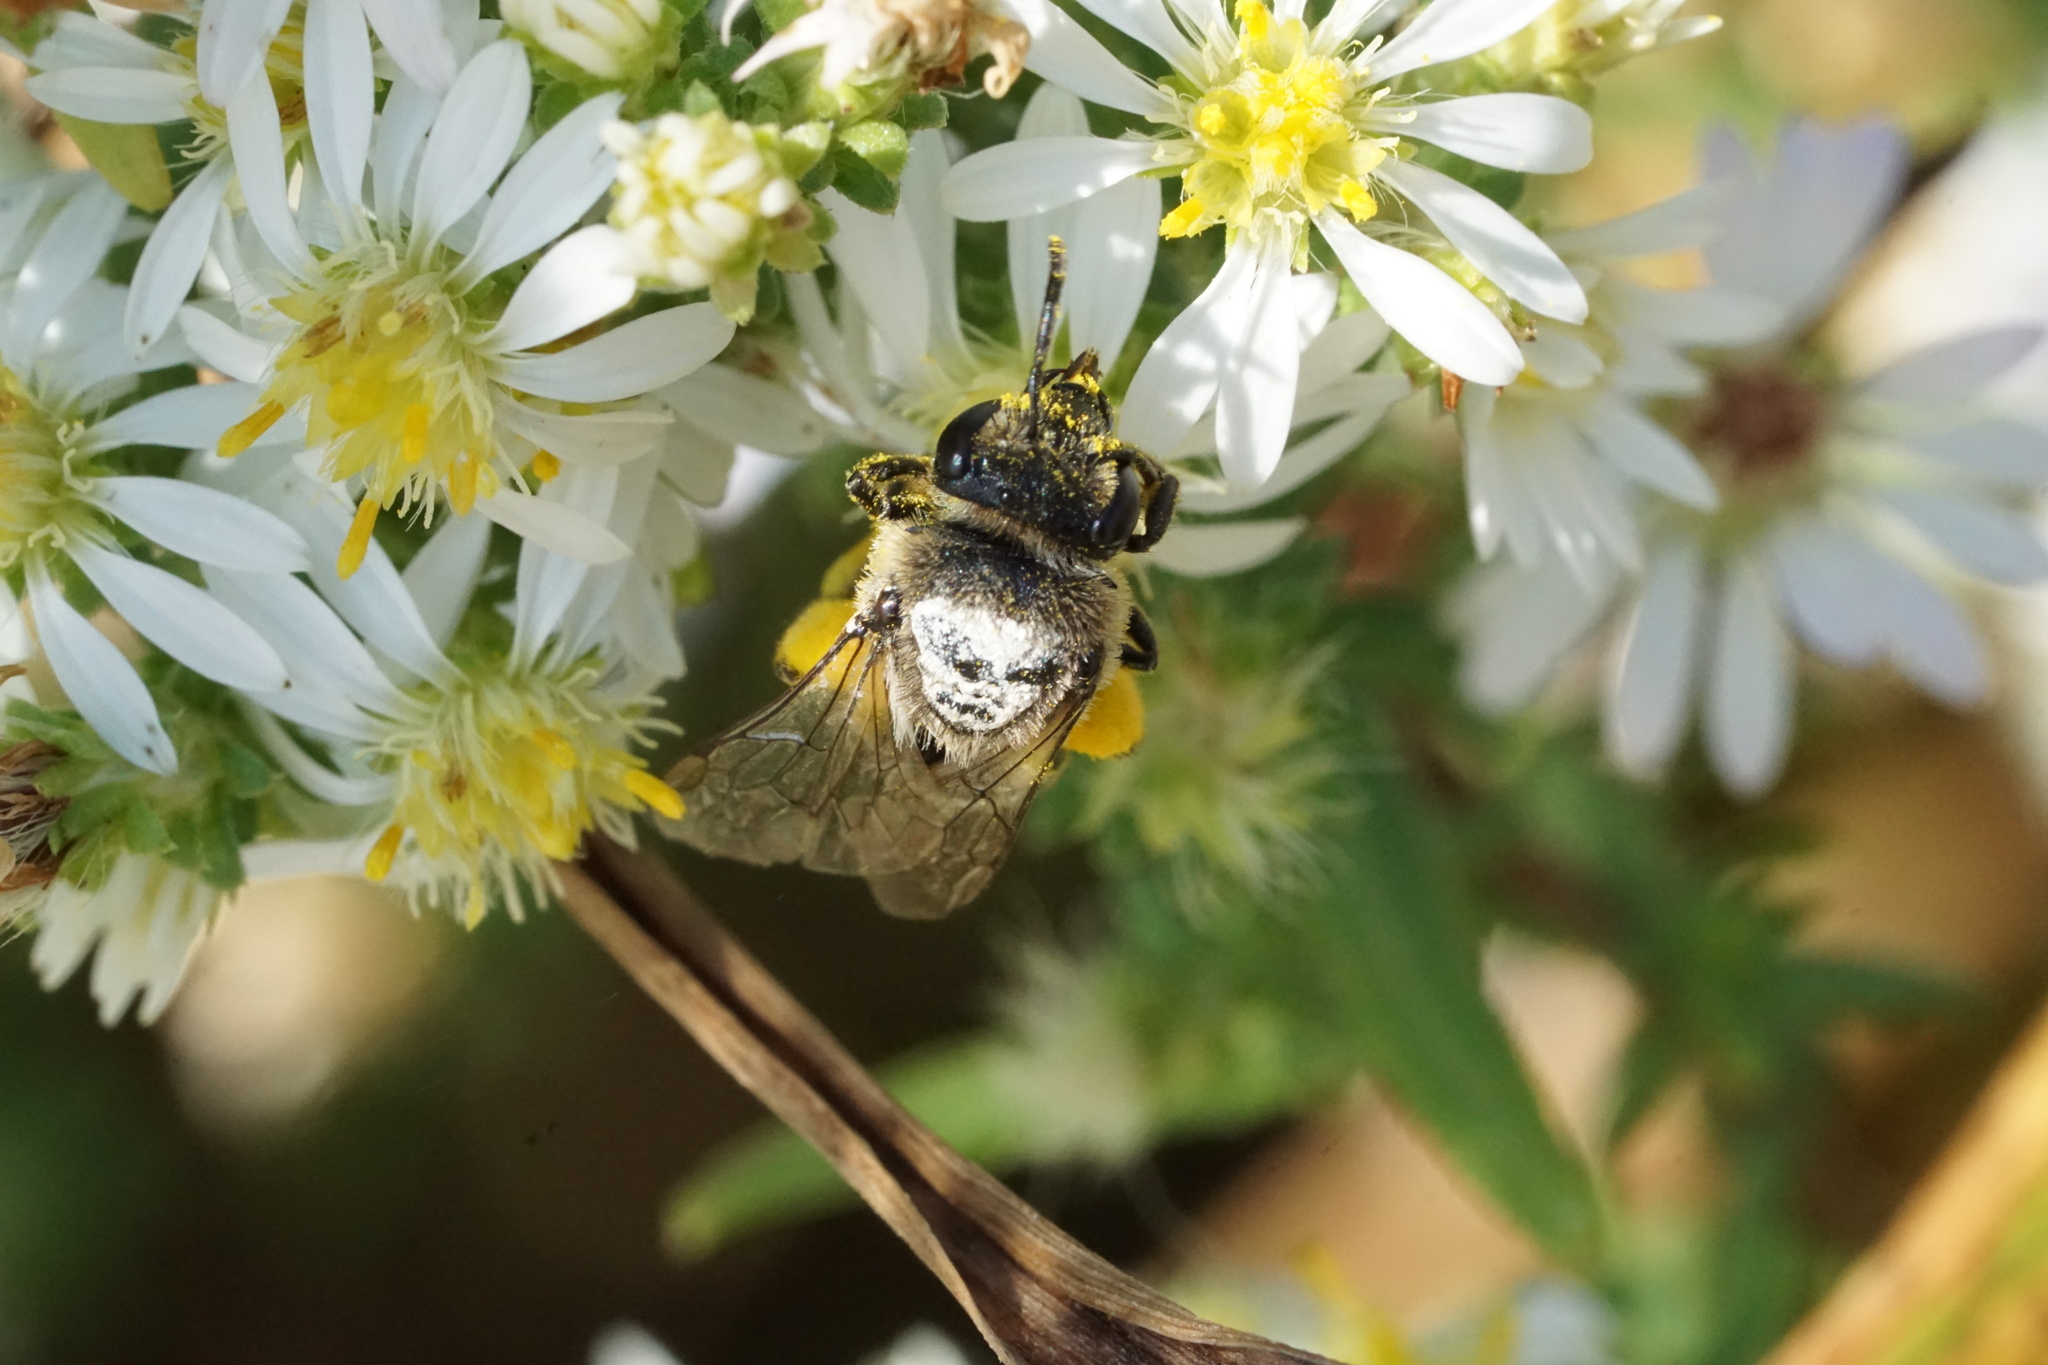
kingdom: Animalia
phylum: Arthropoda
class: Insecta
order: Hymenoptera
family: Colletidae
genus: Colletes
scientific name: Colletes compactus
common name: Aster cellophane bee
